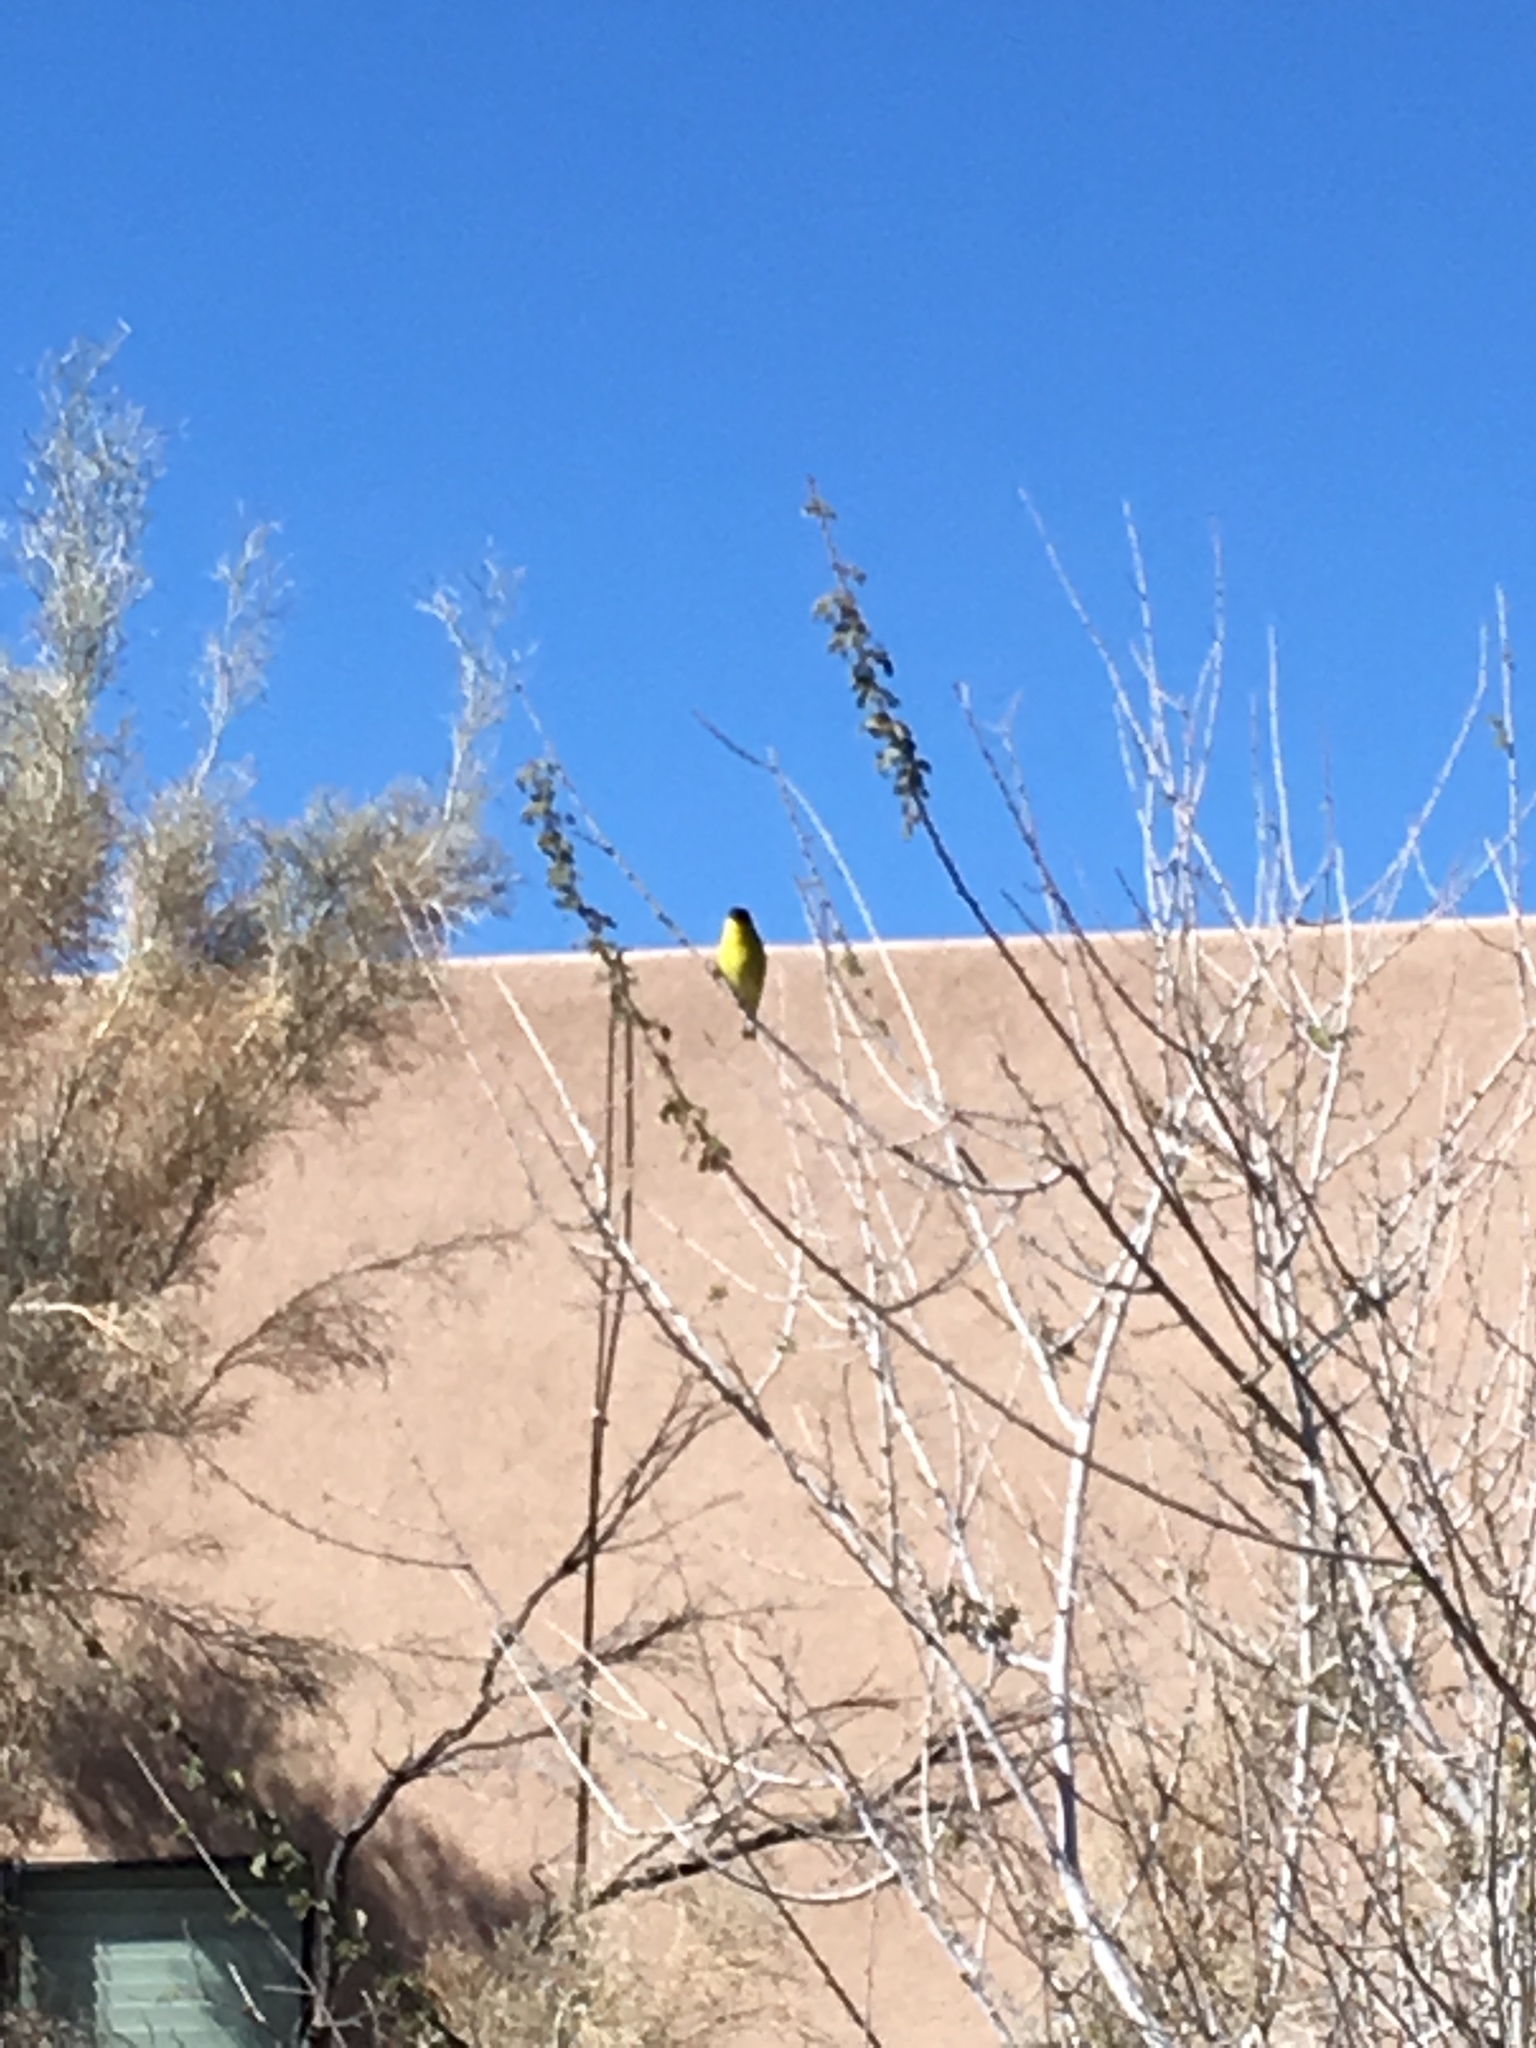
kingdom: Animalia
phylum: Chordata
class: Aves
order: Passeriformes
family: Fringillidae
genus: Spinus
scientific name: Spinus psaltria
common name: Lesser goldfinch
